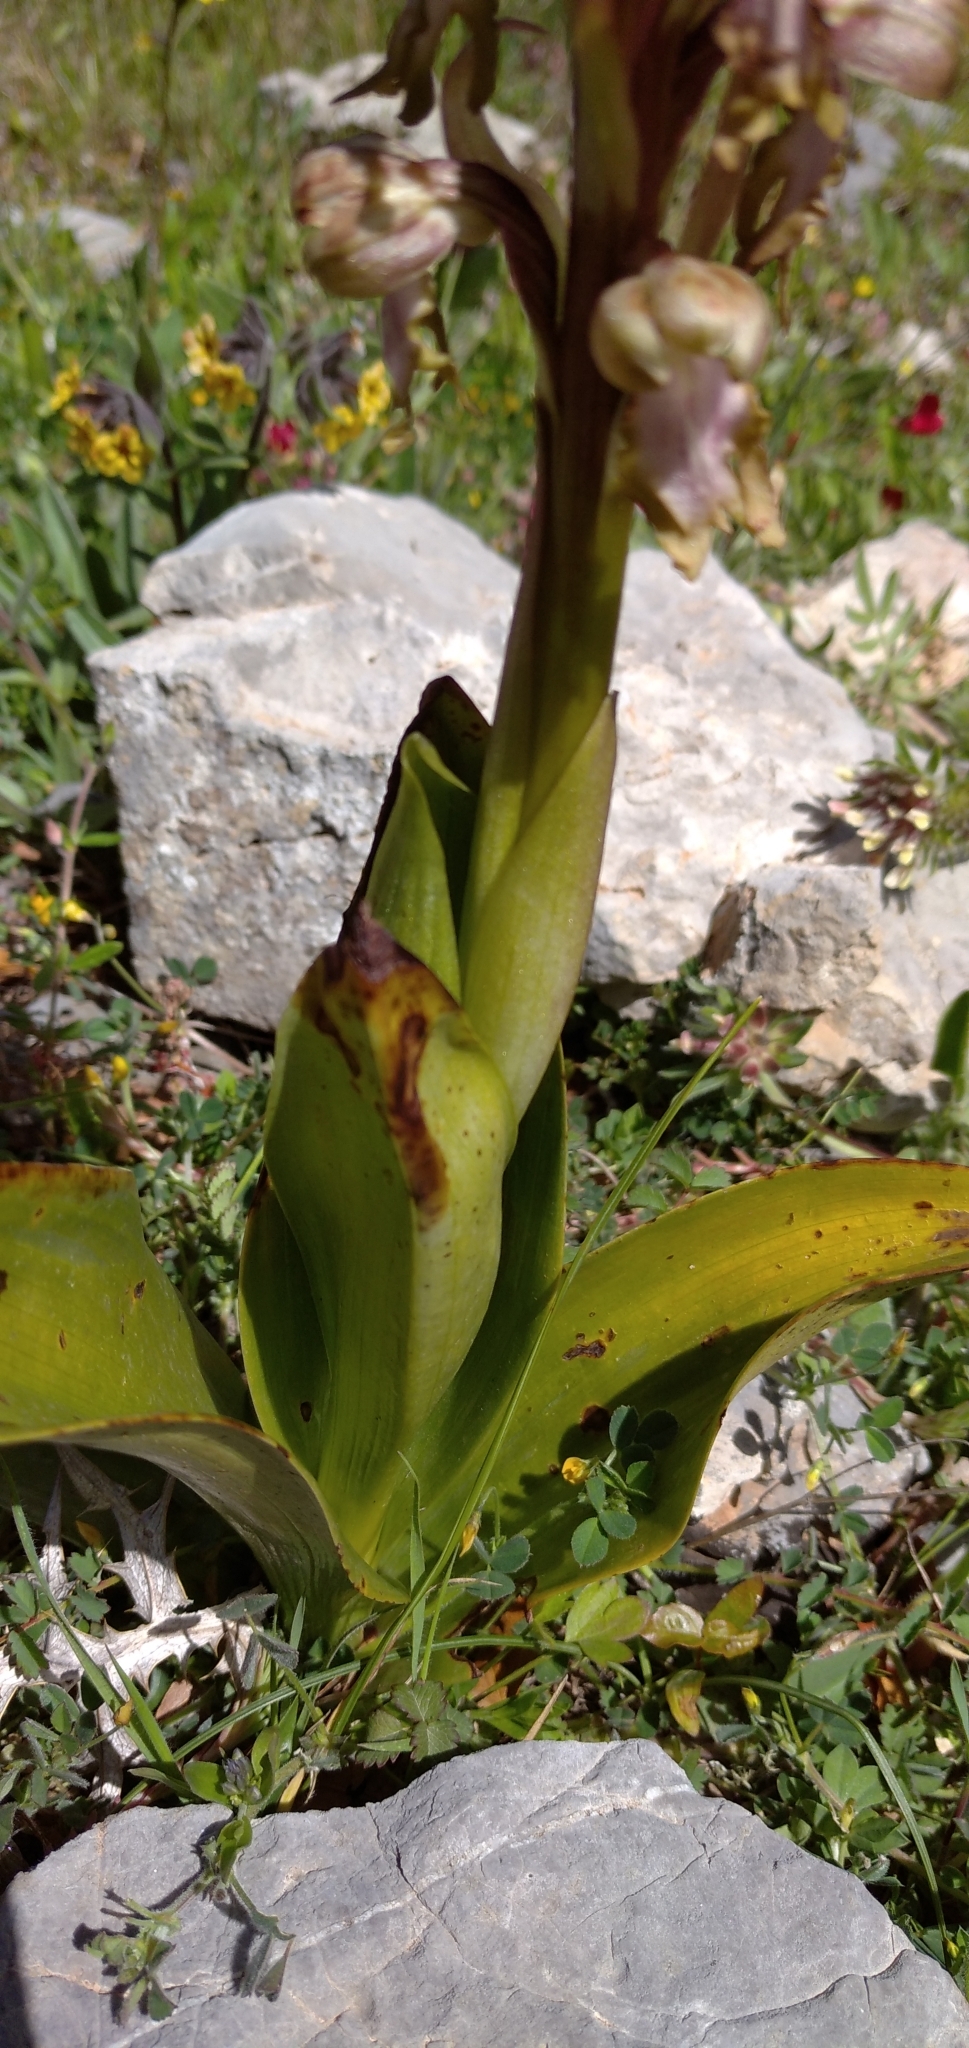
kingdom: Plantae
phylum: Tracheophyta
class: Liliopsida
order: Asparagales
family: Orchidaceae
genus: Himantoglossum
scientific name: Himantoglossum robertianum
